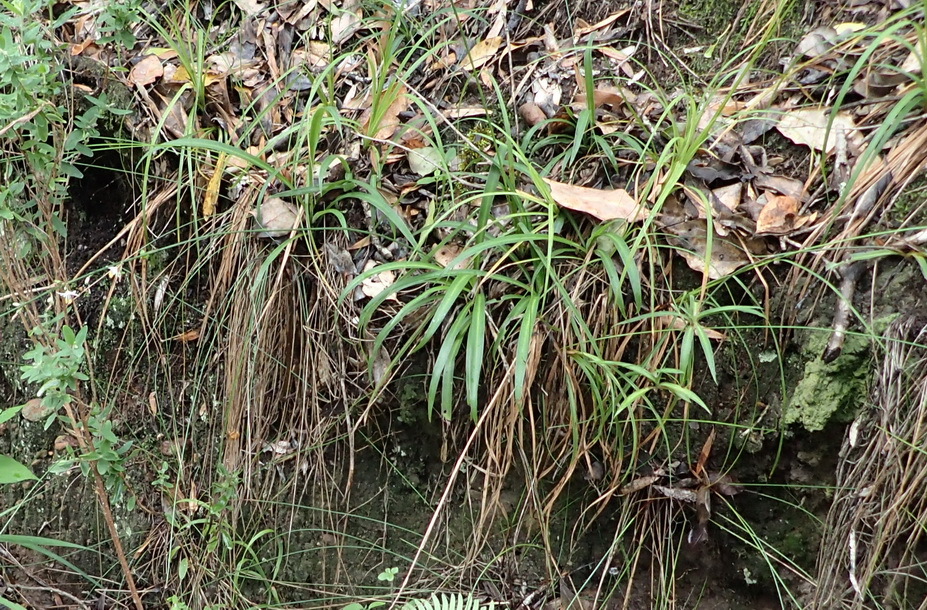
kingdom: Plantae
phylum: Tracheophyta
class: Liliopsida
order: Asparagales
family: Asparagaceae
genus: Chlorophytum
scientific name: Chlorophytum comosum
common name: Spider plant
